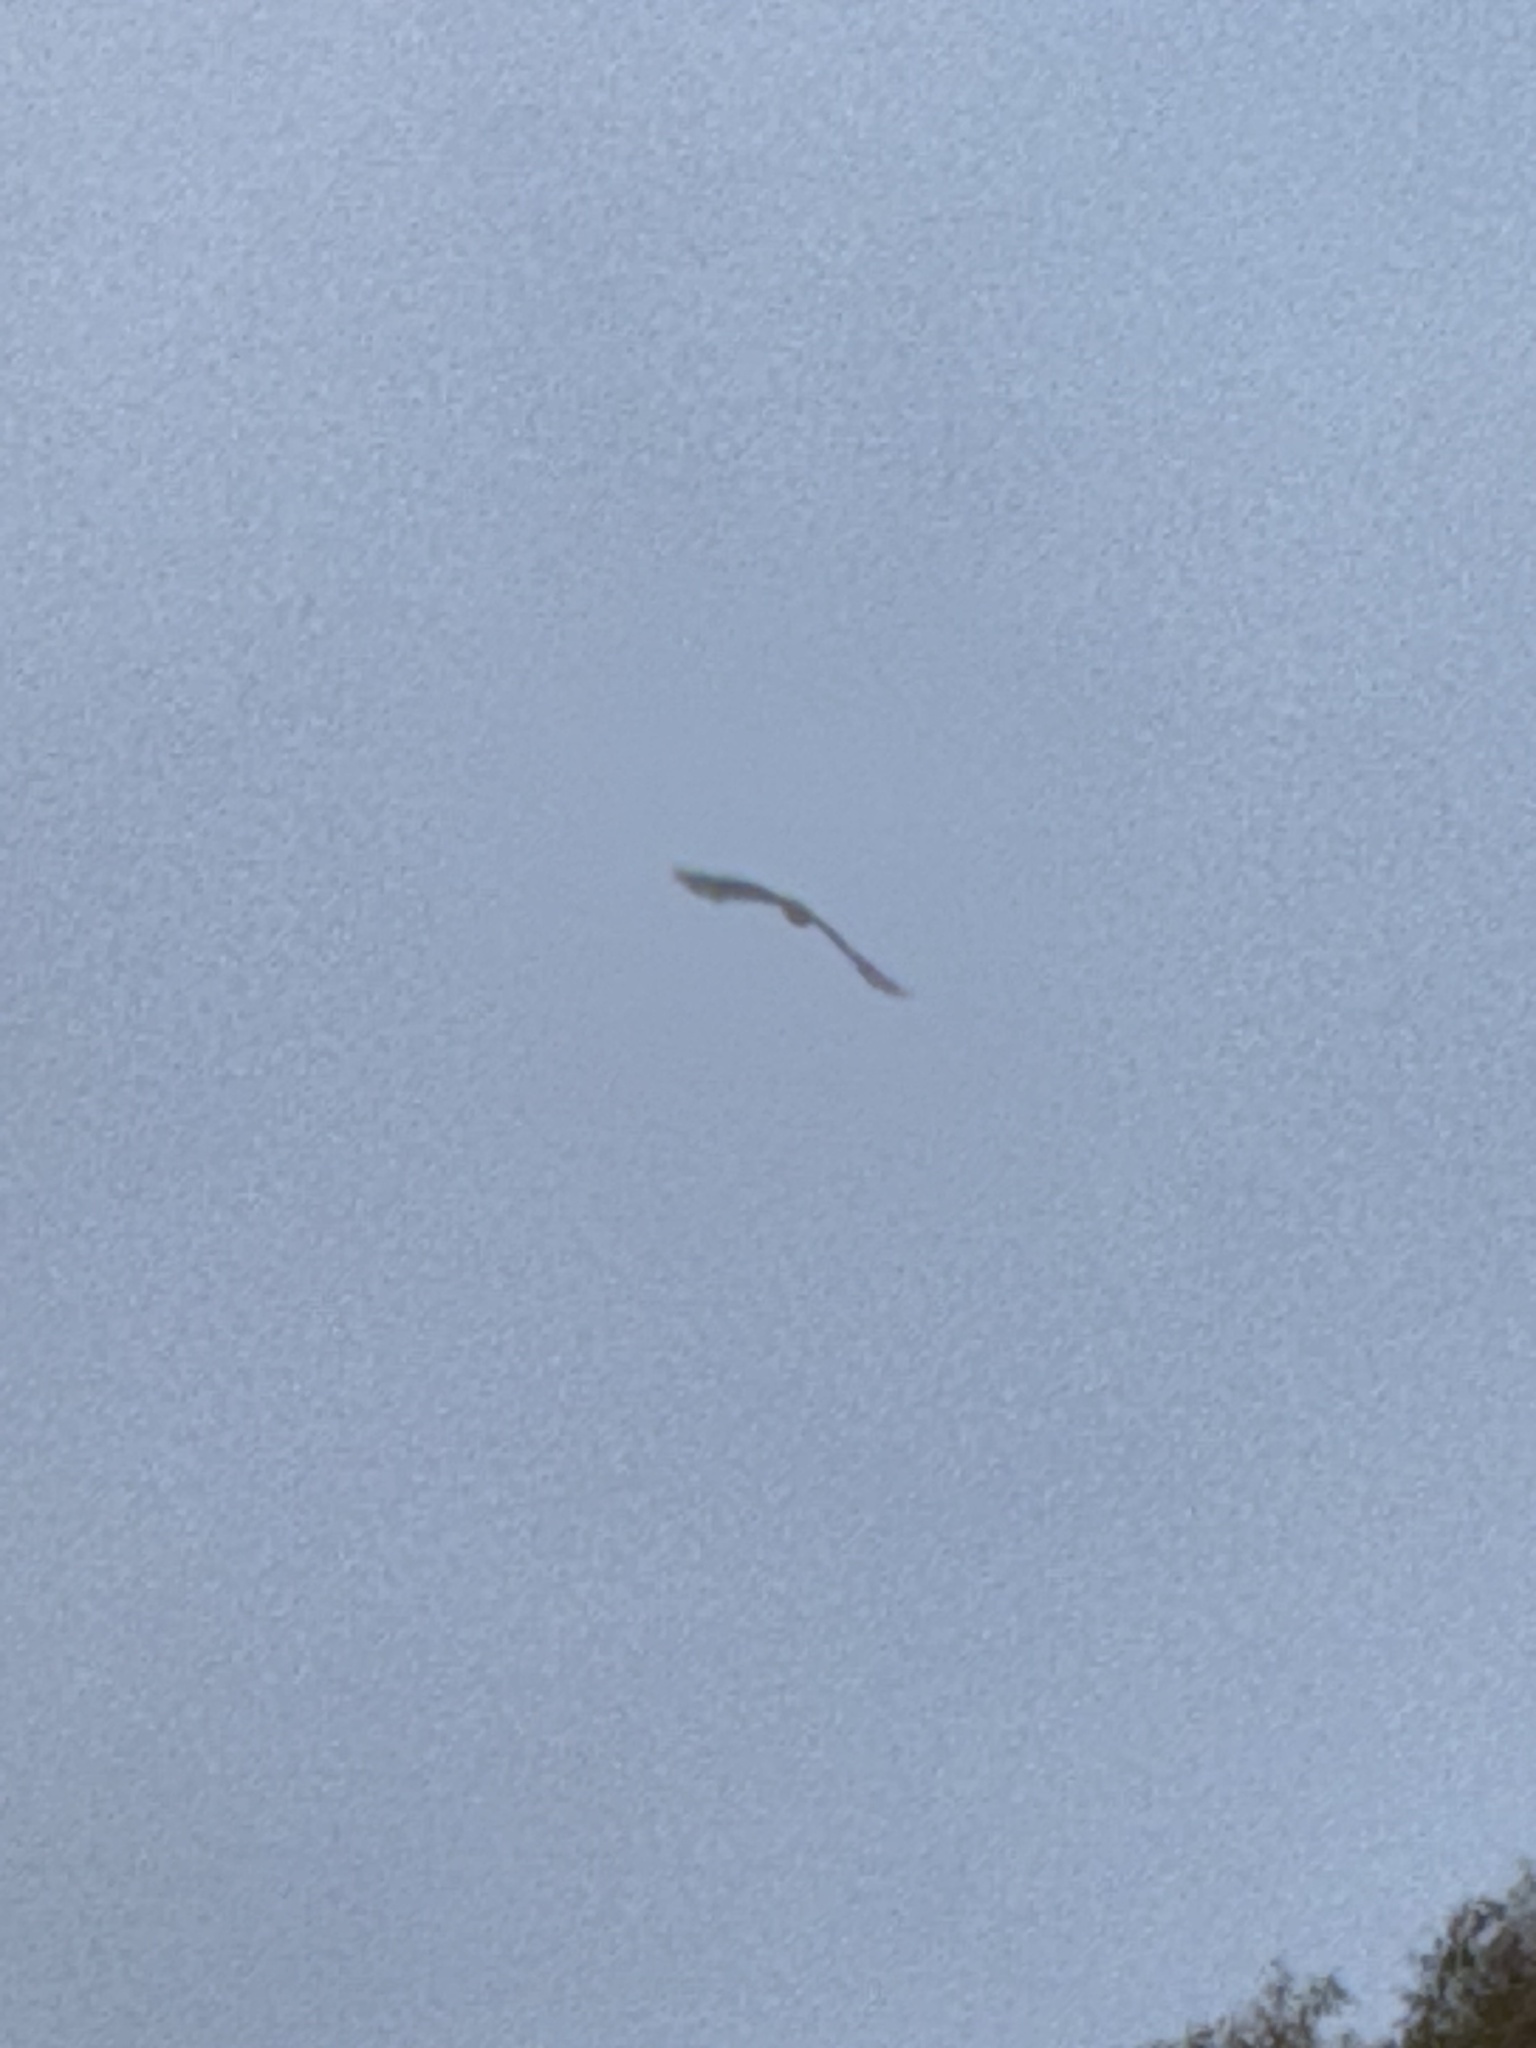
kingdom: Animalia
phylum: Chordata
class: Aves
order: Accipitriformes
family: Accipitridae
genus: Buteo
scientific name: Buteo jamaicensis
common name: Red-tailed hawk
